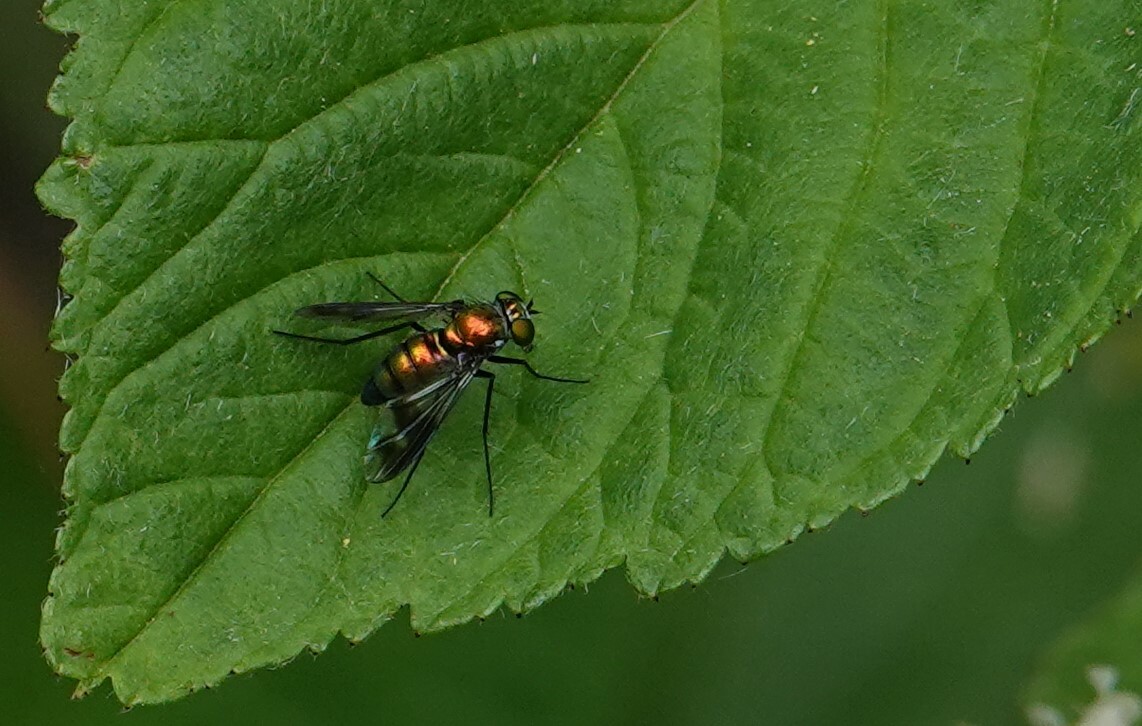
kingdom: Animalia
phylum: Arthropoda
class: Insecta
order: Diptera
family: Dolichopodidae
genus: Condylostylus
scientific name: Condylostylus patibulatus
